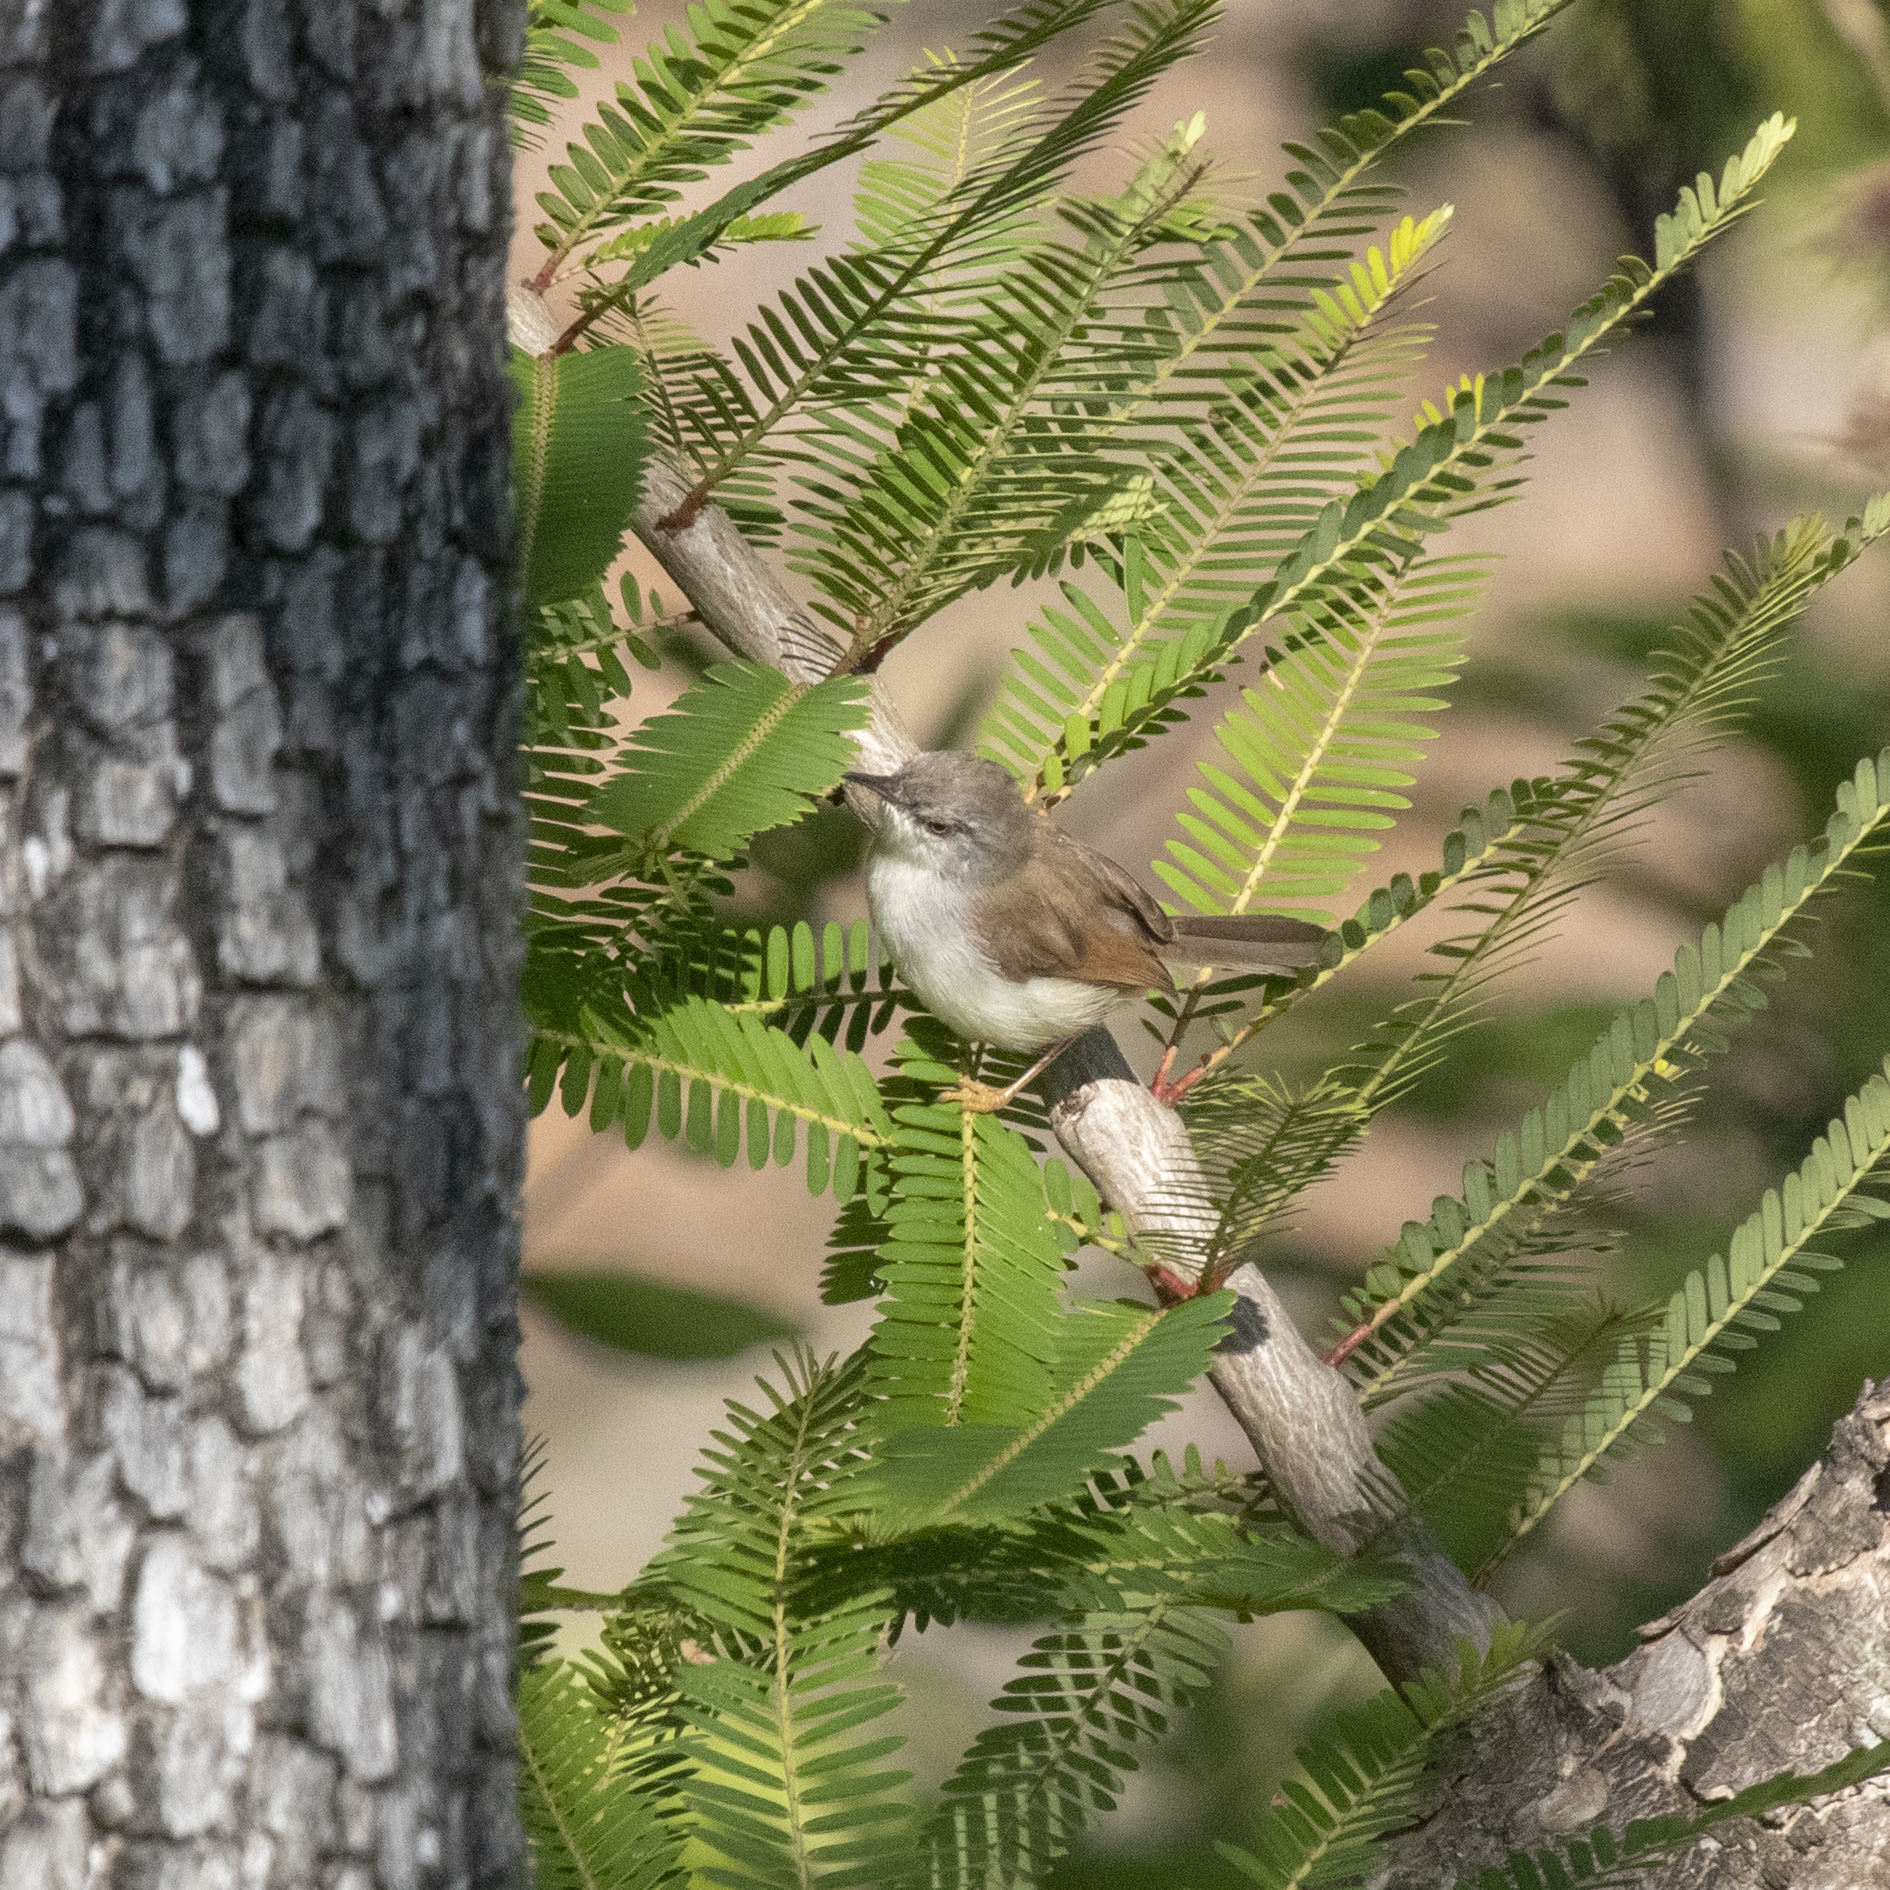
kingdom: Animalia
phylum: Chordata
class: Aves
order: Passeriformes
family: Cisticolidae
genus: Prinia
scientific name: Prinia hodgsonii
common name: Grey-breasted prinia
